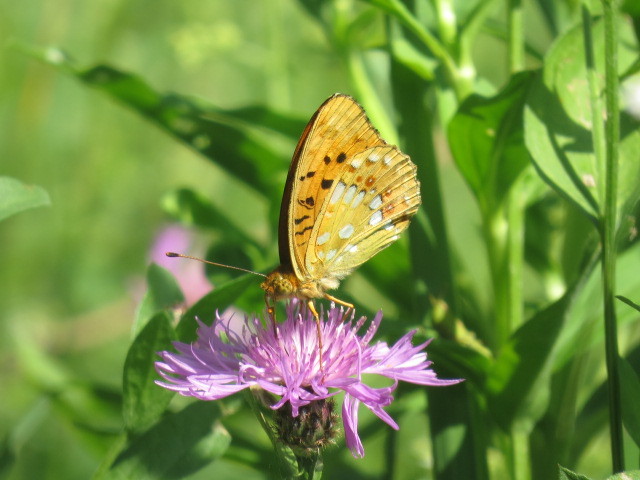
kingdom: Animalia
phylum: Arthropoda
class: Insecta
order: Lepidoptera
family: Nymphalidae
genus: Fabriciana
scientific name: Fabriciana adippe
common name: High brown fritillary
